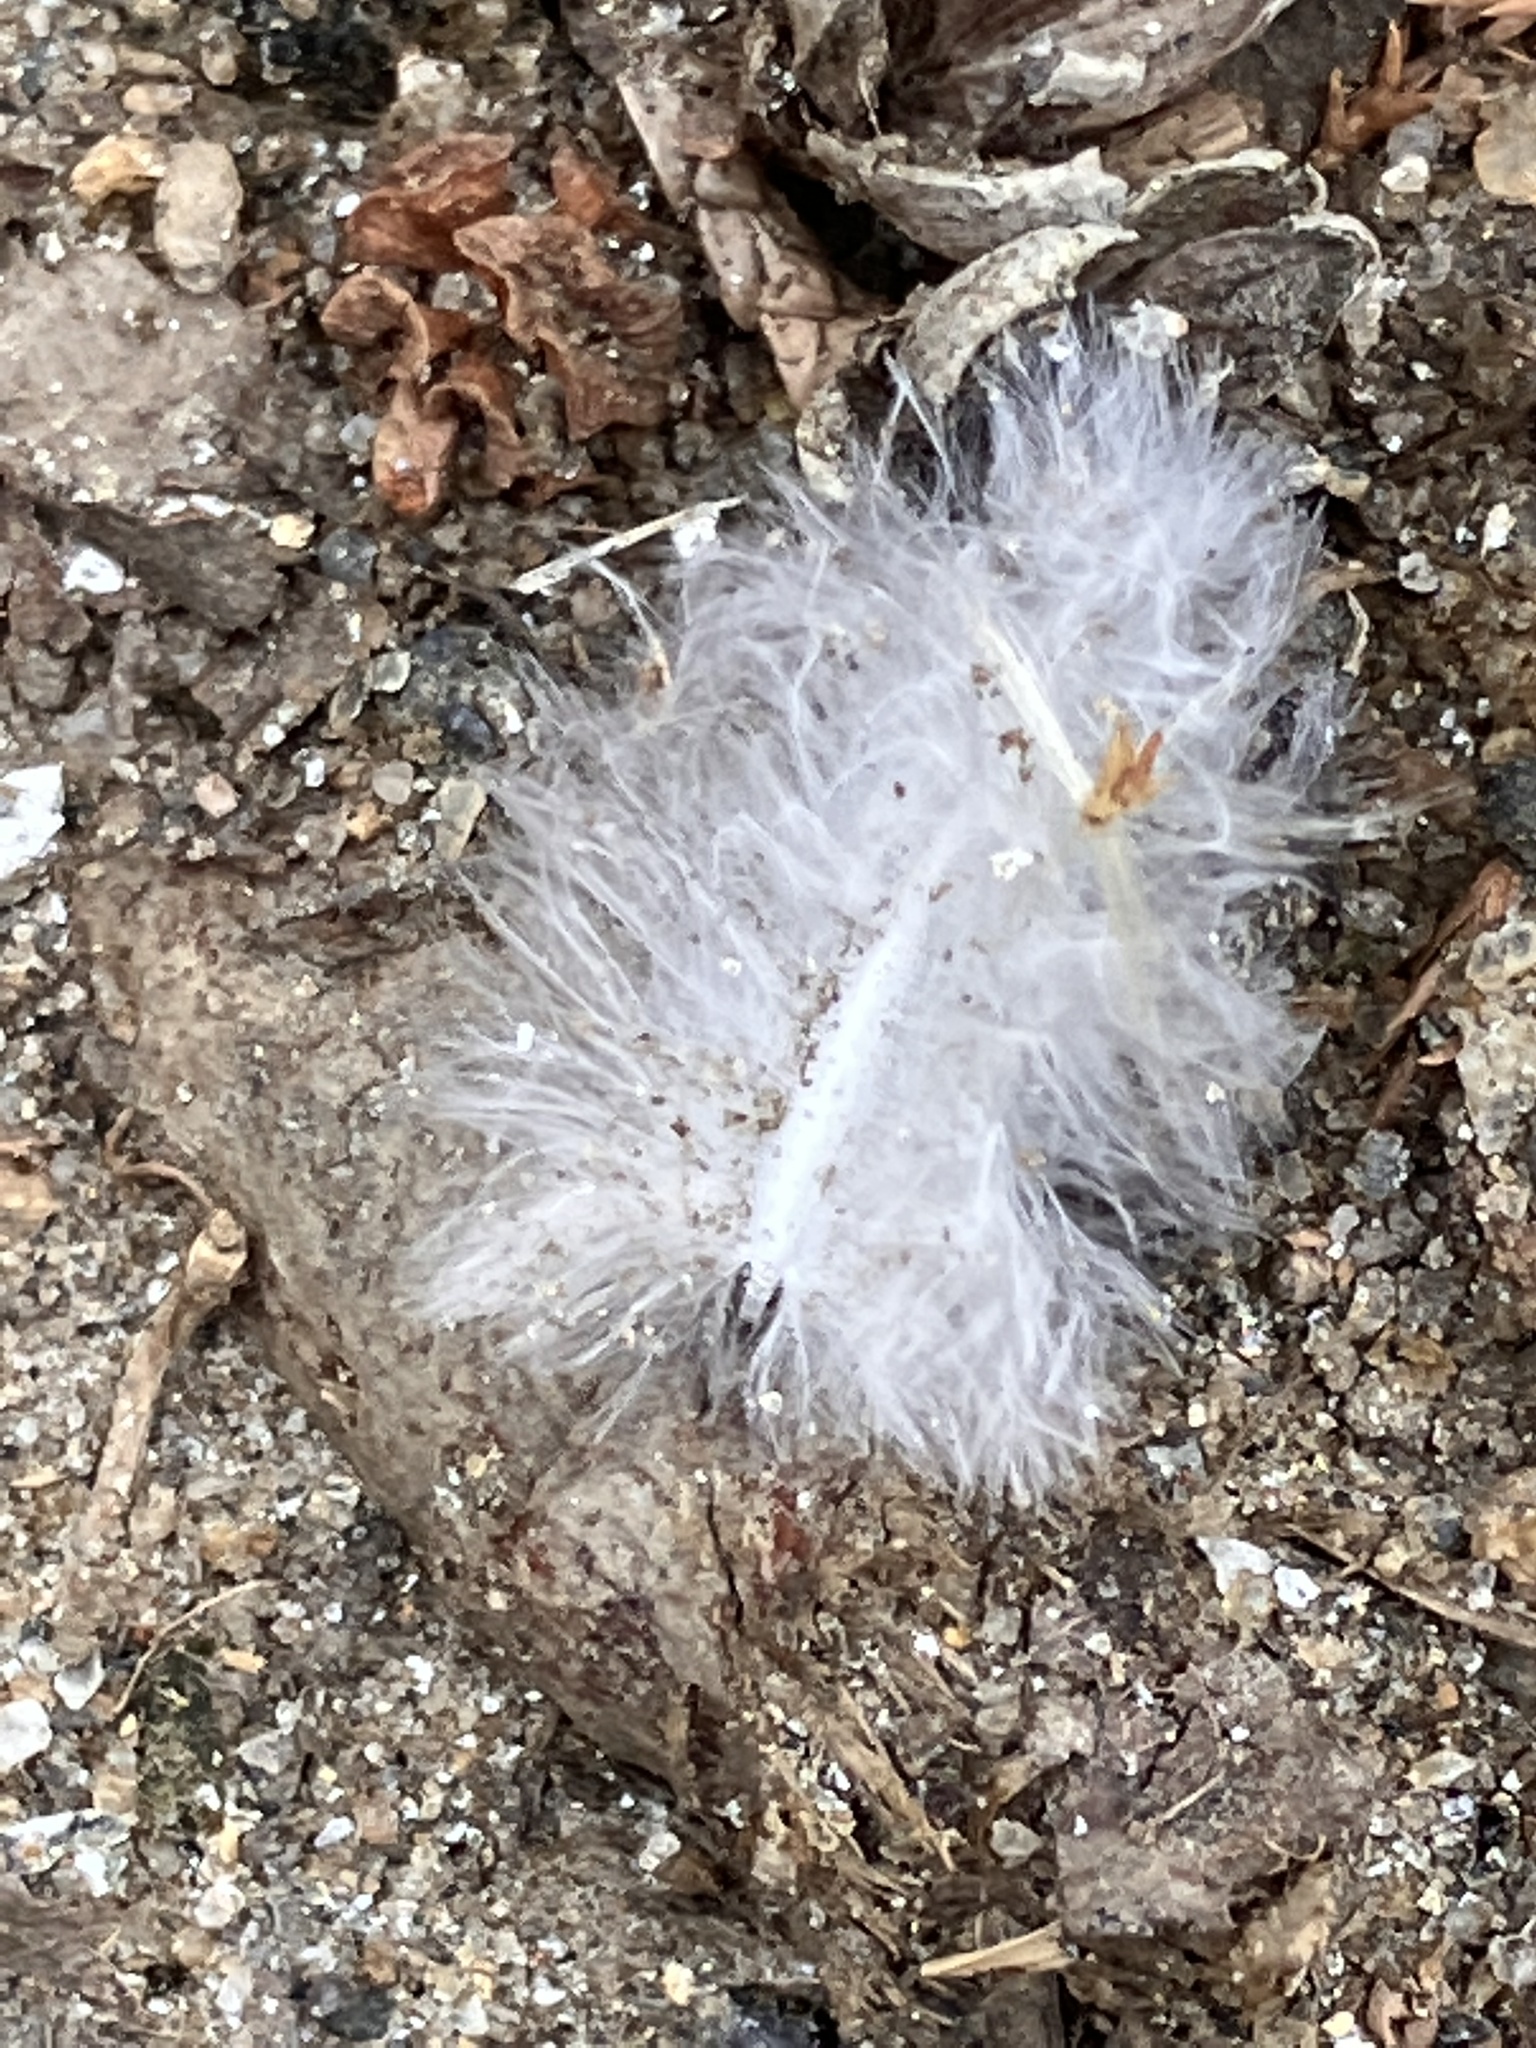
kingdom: Animalia
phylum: Chordata
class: Aves
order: Columbiformes
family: Columbidae
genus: Zenaida
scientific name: Zenaida macroura
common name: Mourning dove
